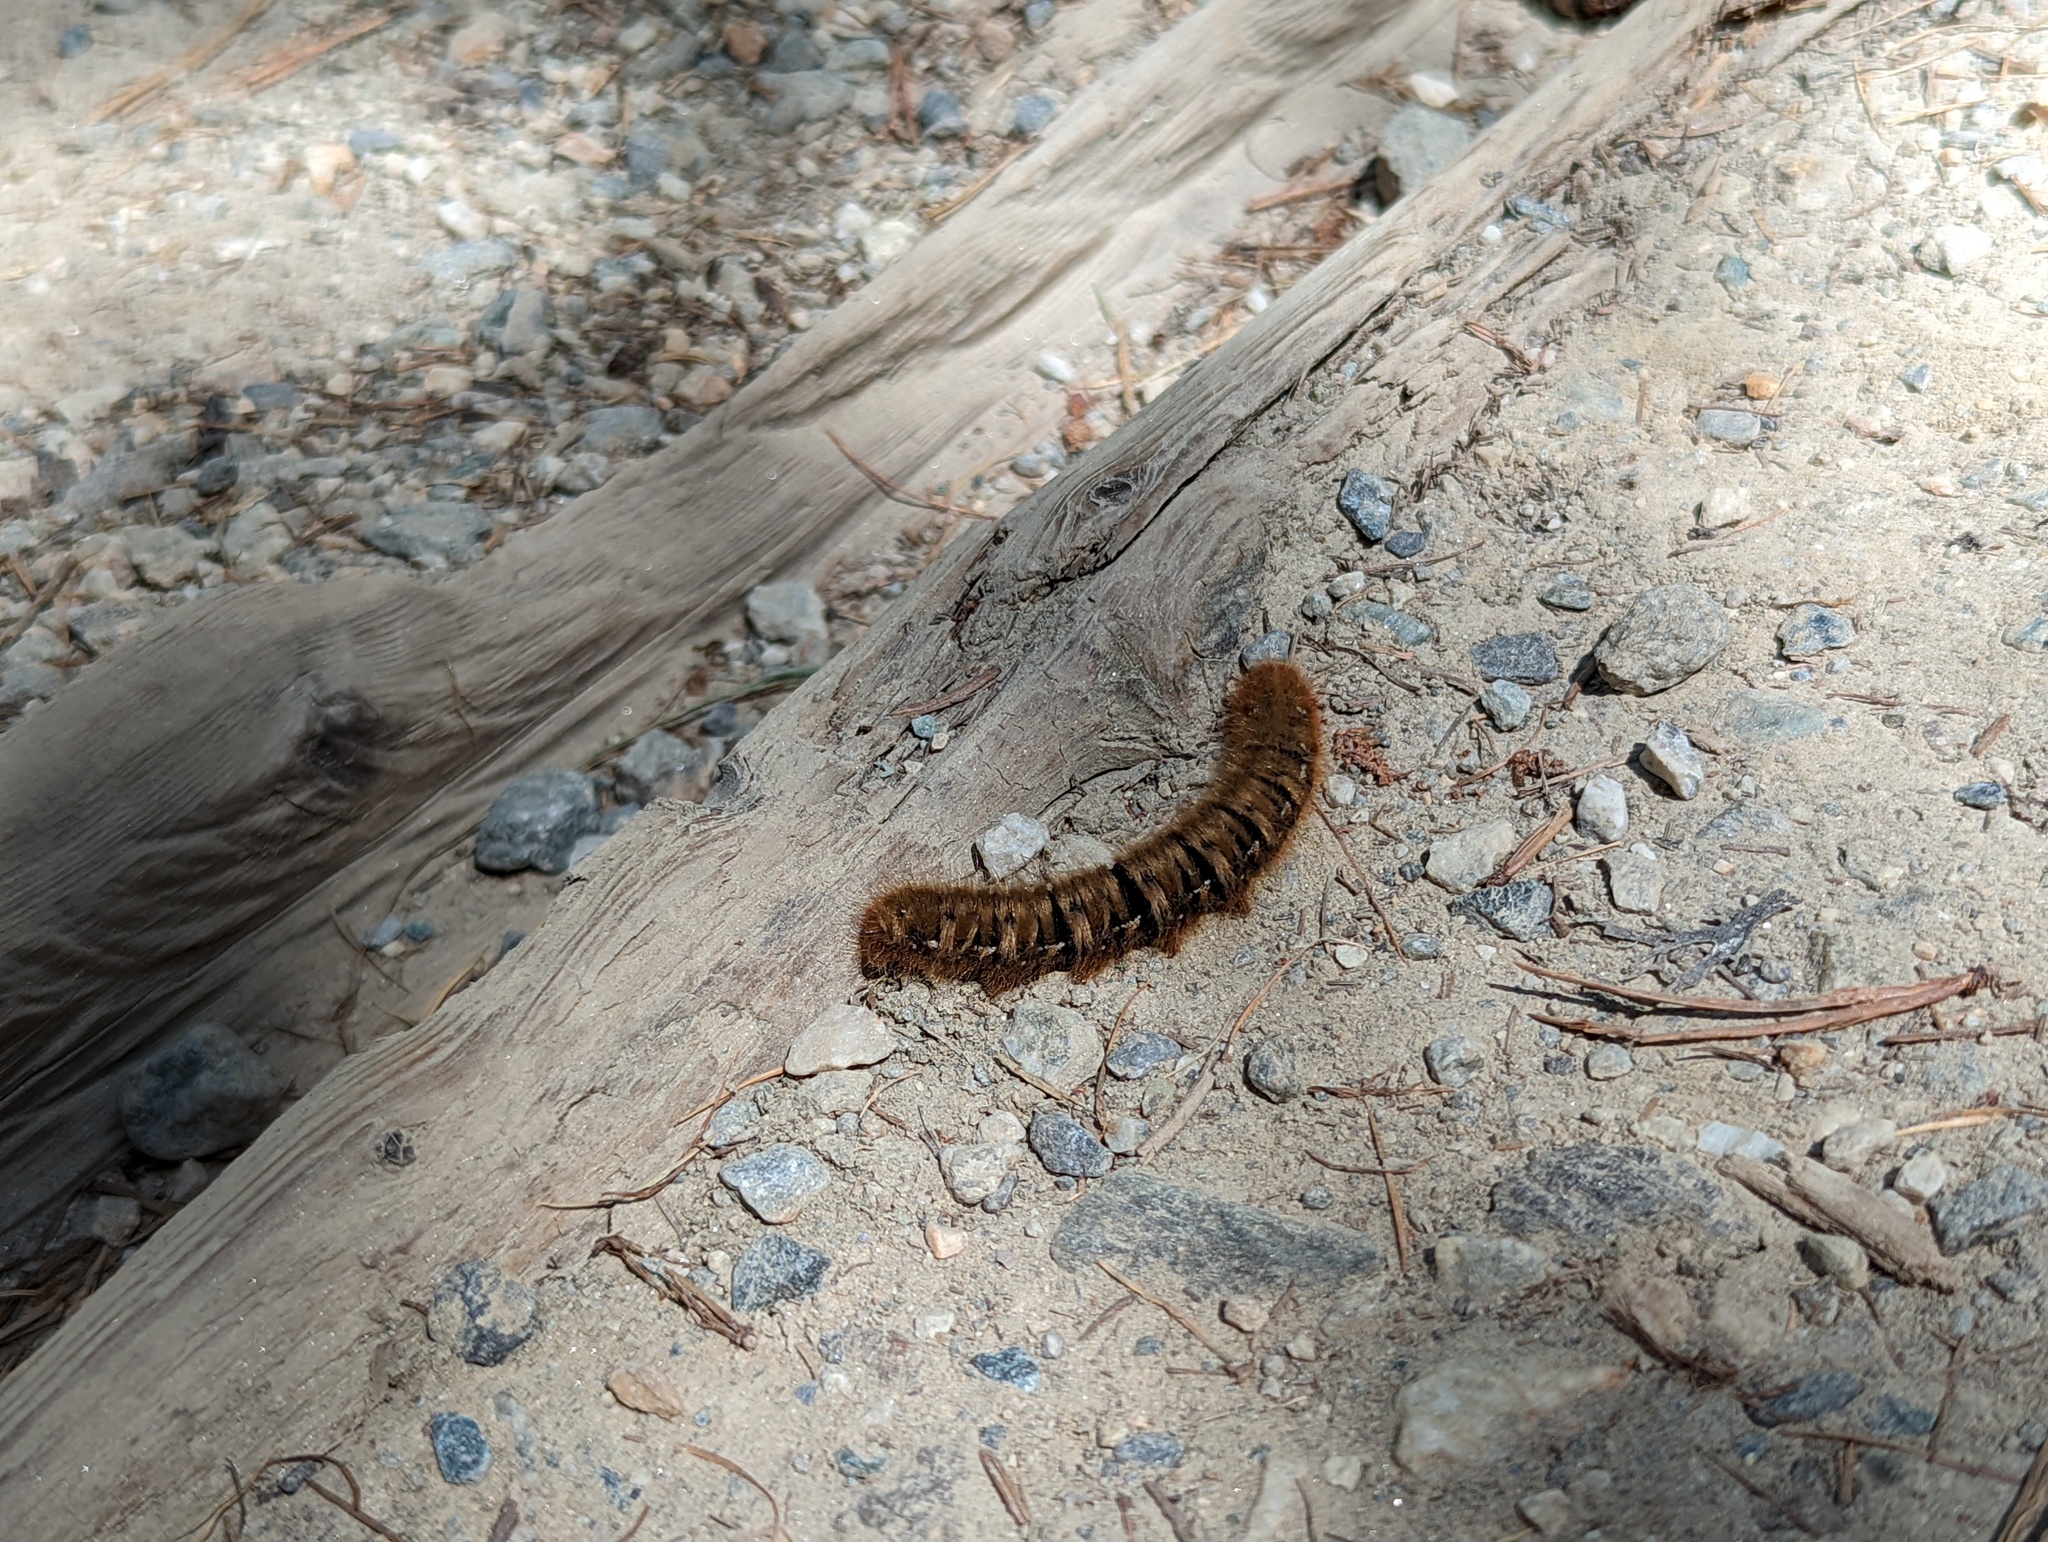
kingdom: Animalia
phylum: Arthropoda
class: Insecta
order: Lepidoptera
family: Lasiocampidae
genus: Lasiocampa
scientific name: Lasiocampa quercus
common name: Oak eggar
